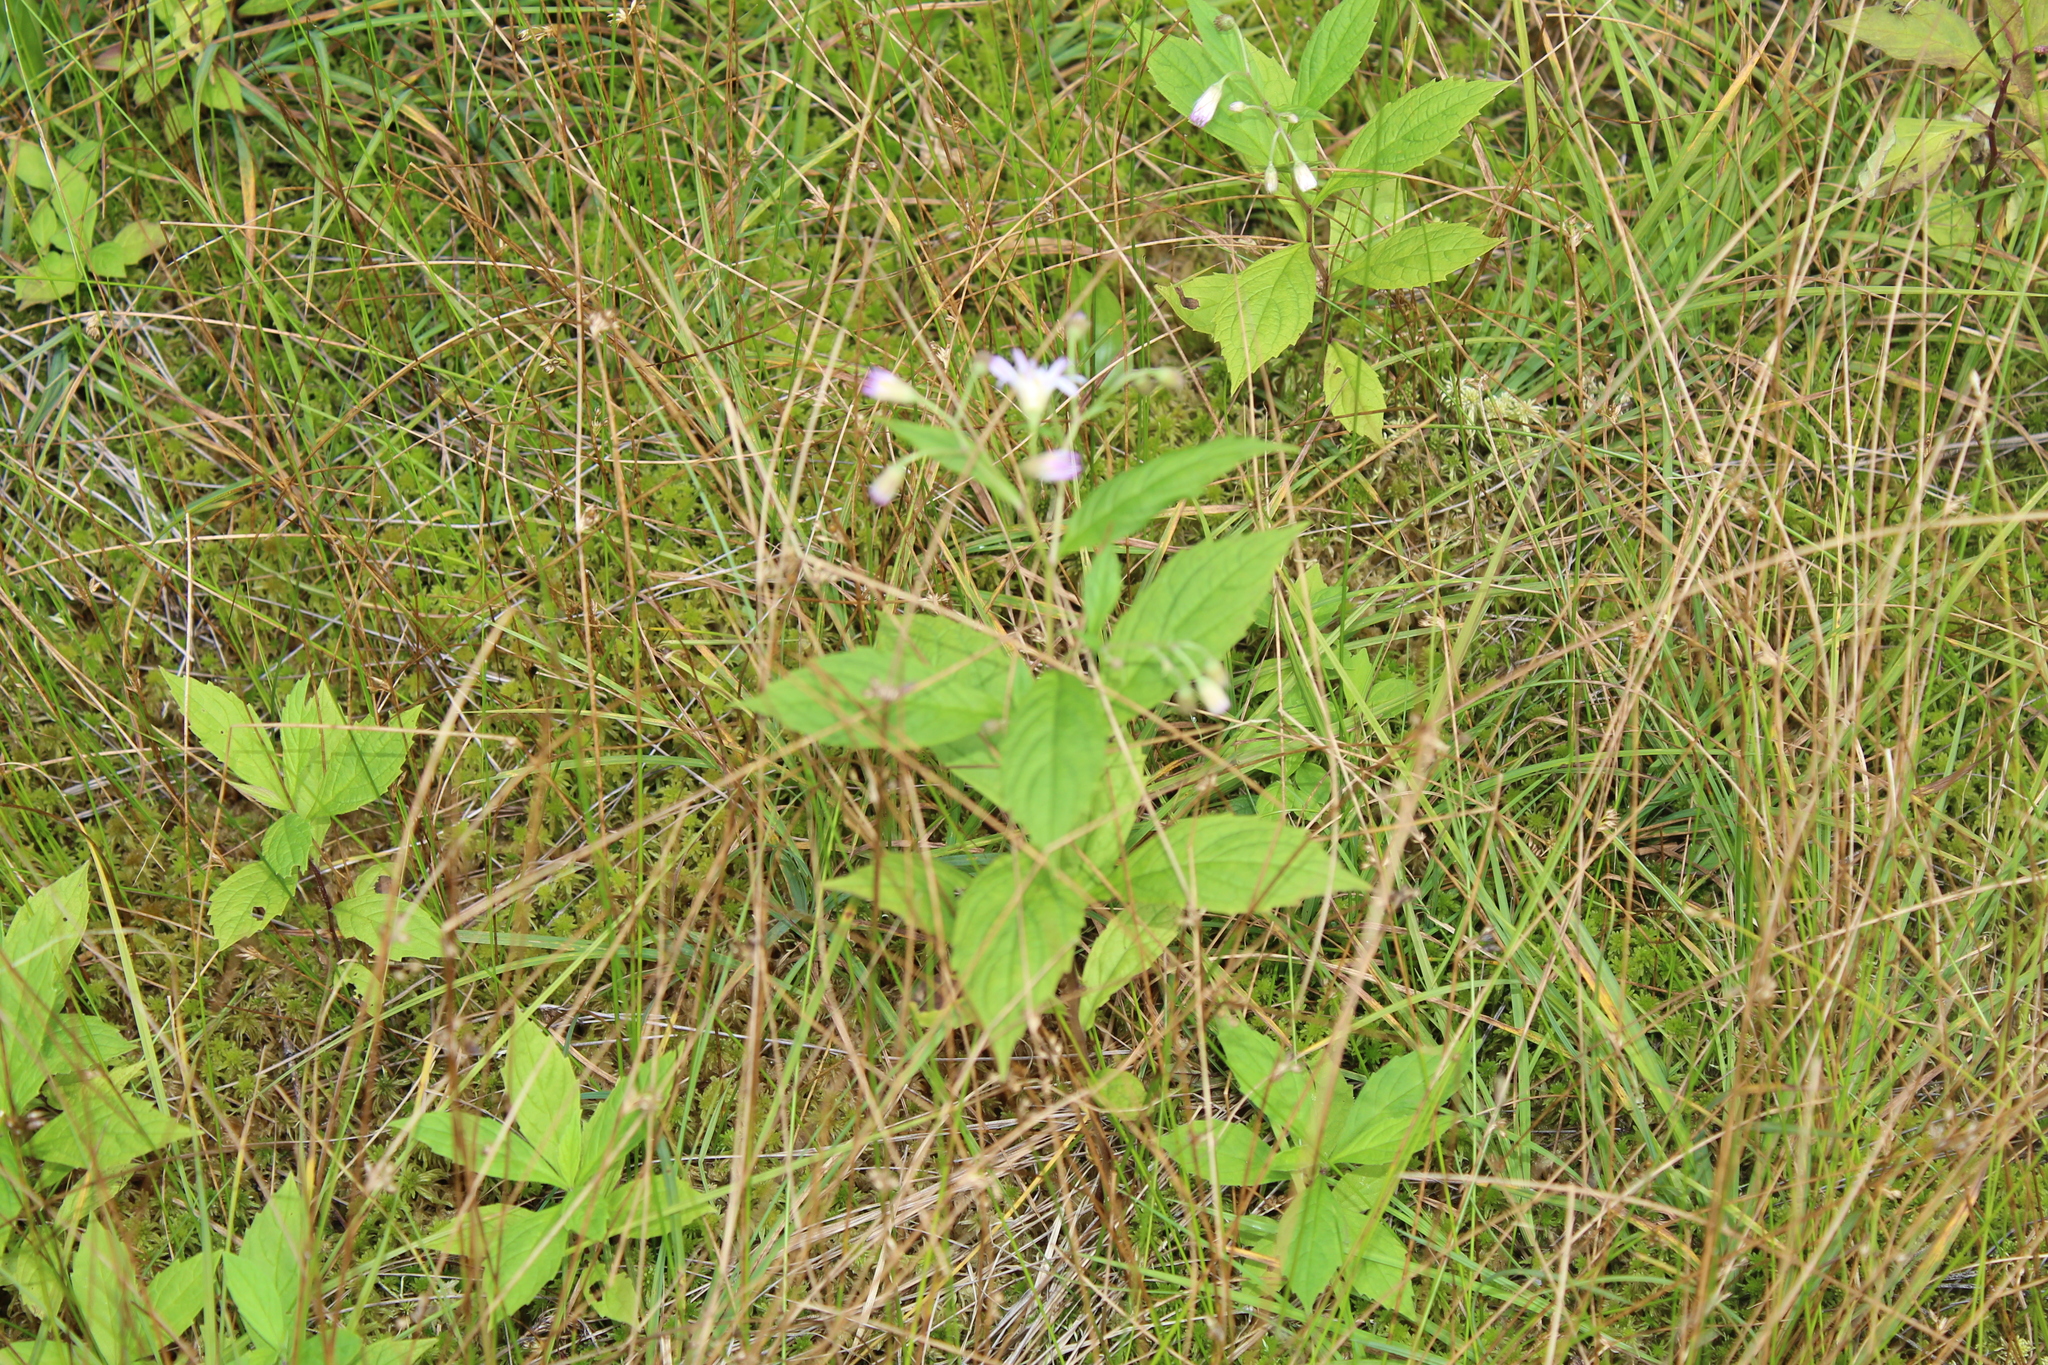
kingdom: Plantae
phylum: Tracheophyta
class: Magnoliopsida
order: Asterales
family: Asteraceae
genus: Oclemena
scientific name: Oclemena acuminata
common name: Mountain aster
